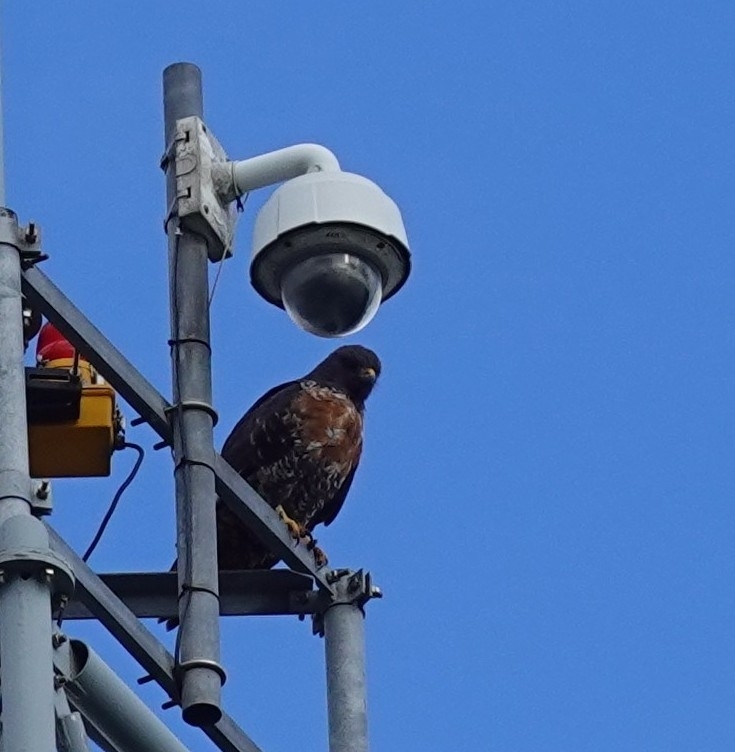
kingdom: Animalia
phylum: Chordata
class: Aves
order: Accipitriformes
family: Accipitridae
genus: Buteo
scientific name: Buteo rufofuscus
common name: Jackal buzzard
